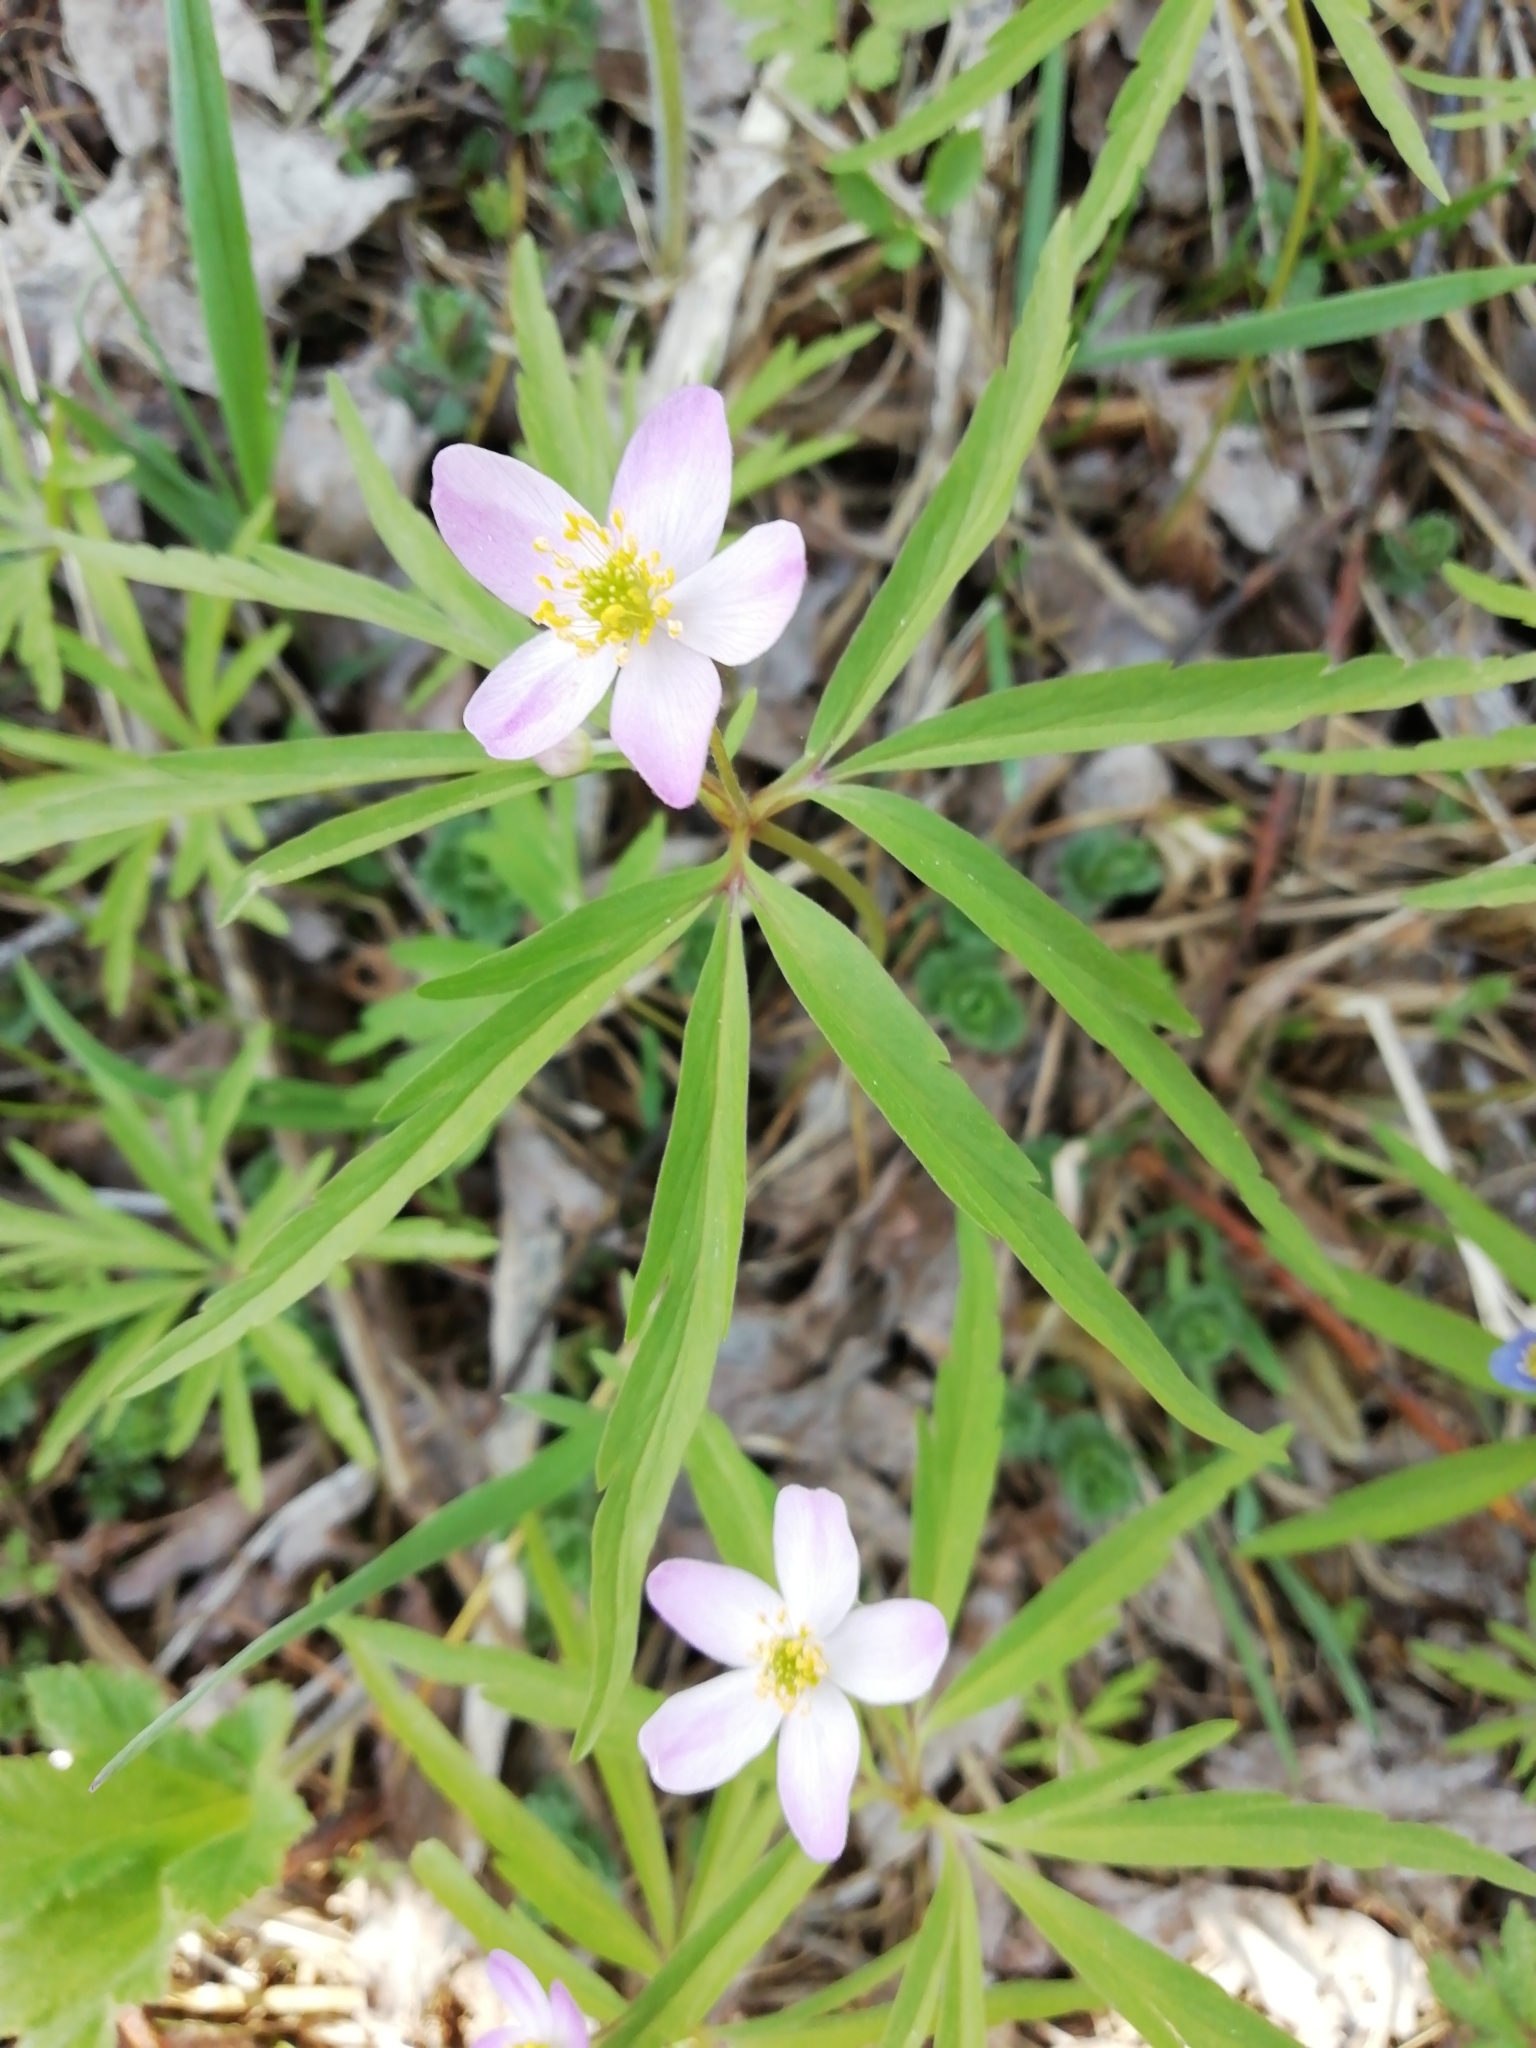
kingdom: Plantae
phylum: Tracheophyta
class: Magnoliopsida
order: Ranunculales
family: Ranunculaceae
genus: Anemone
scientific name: Anemone caerulea
